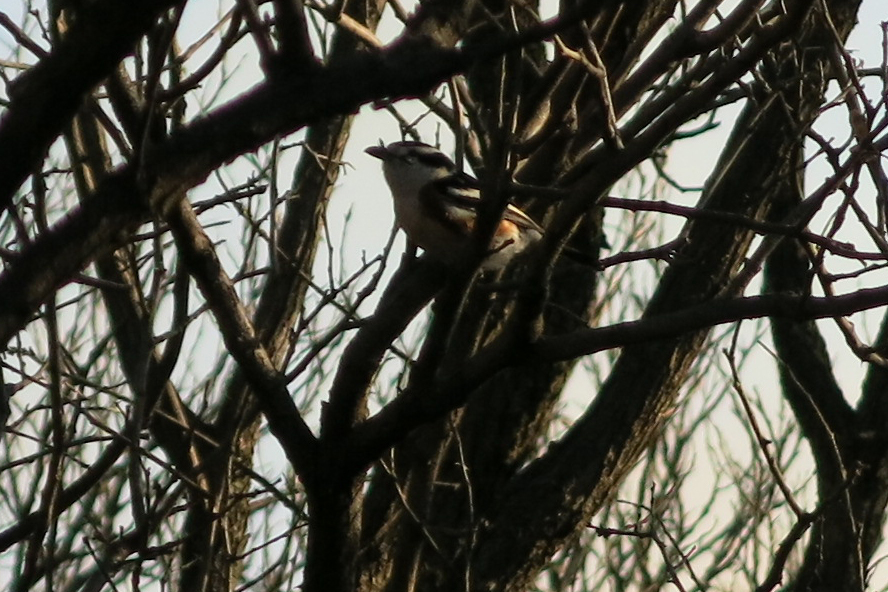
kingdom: Animalia
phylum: Chordata
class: Aves
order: Passeriformes
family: Malaconotidae
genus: Nilaus
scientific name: Nilaus afer
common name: Brubru
